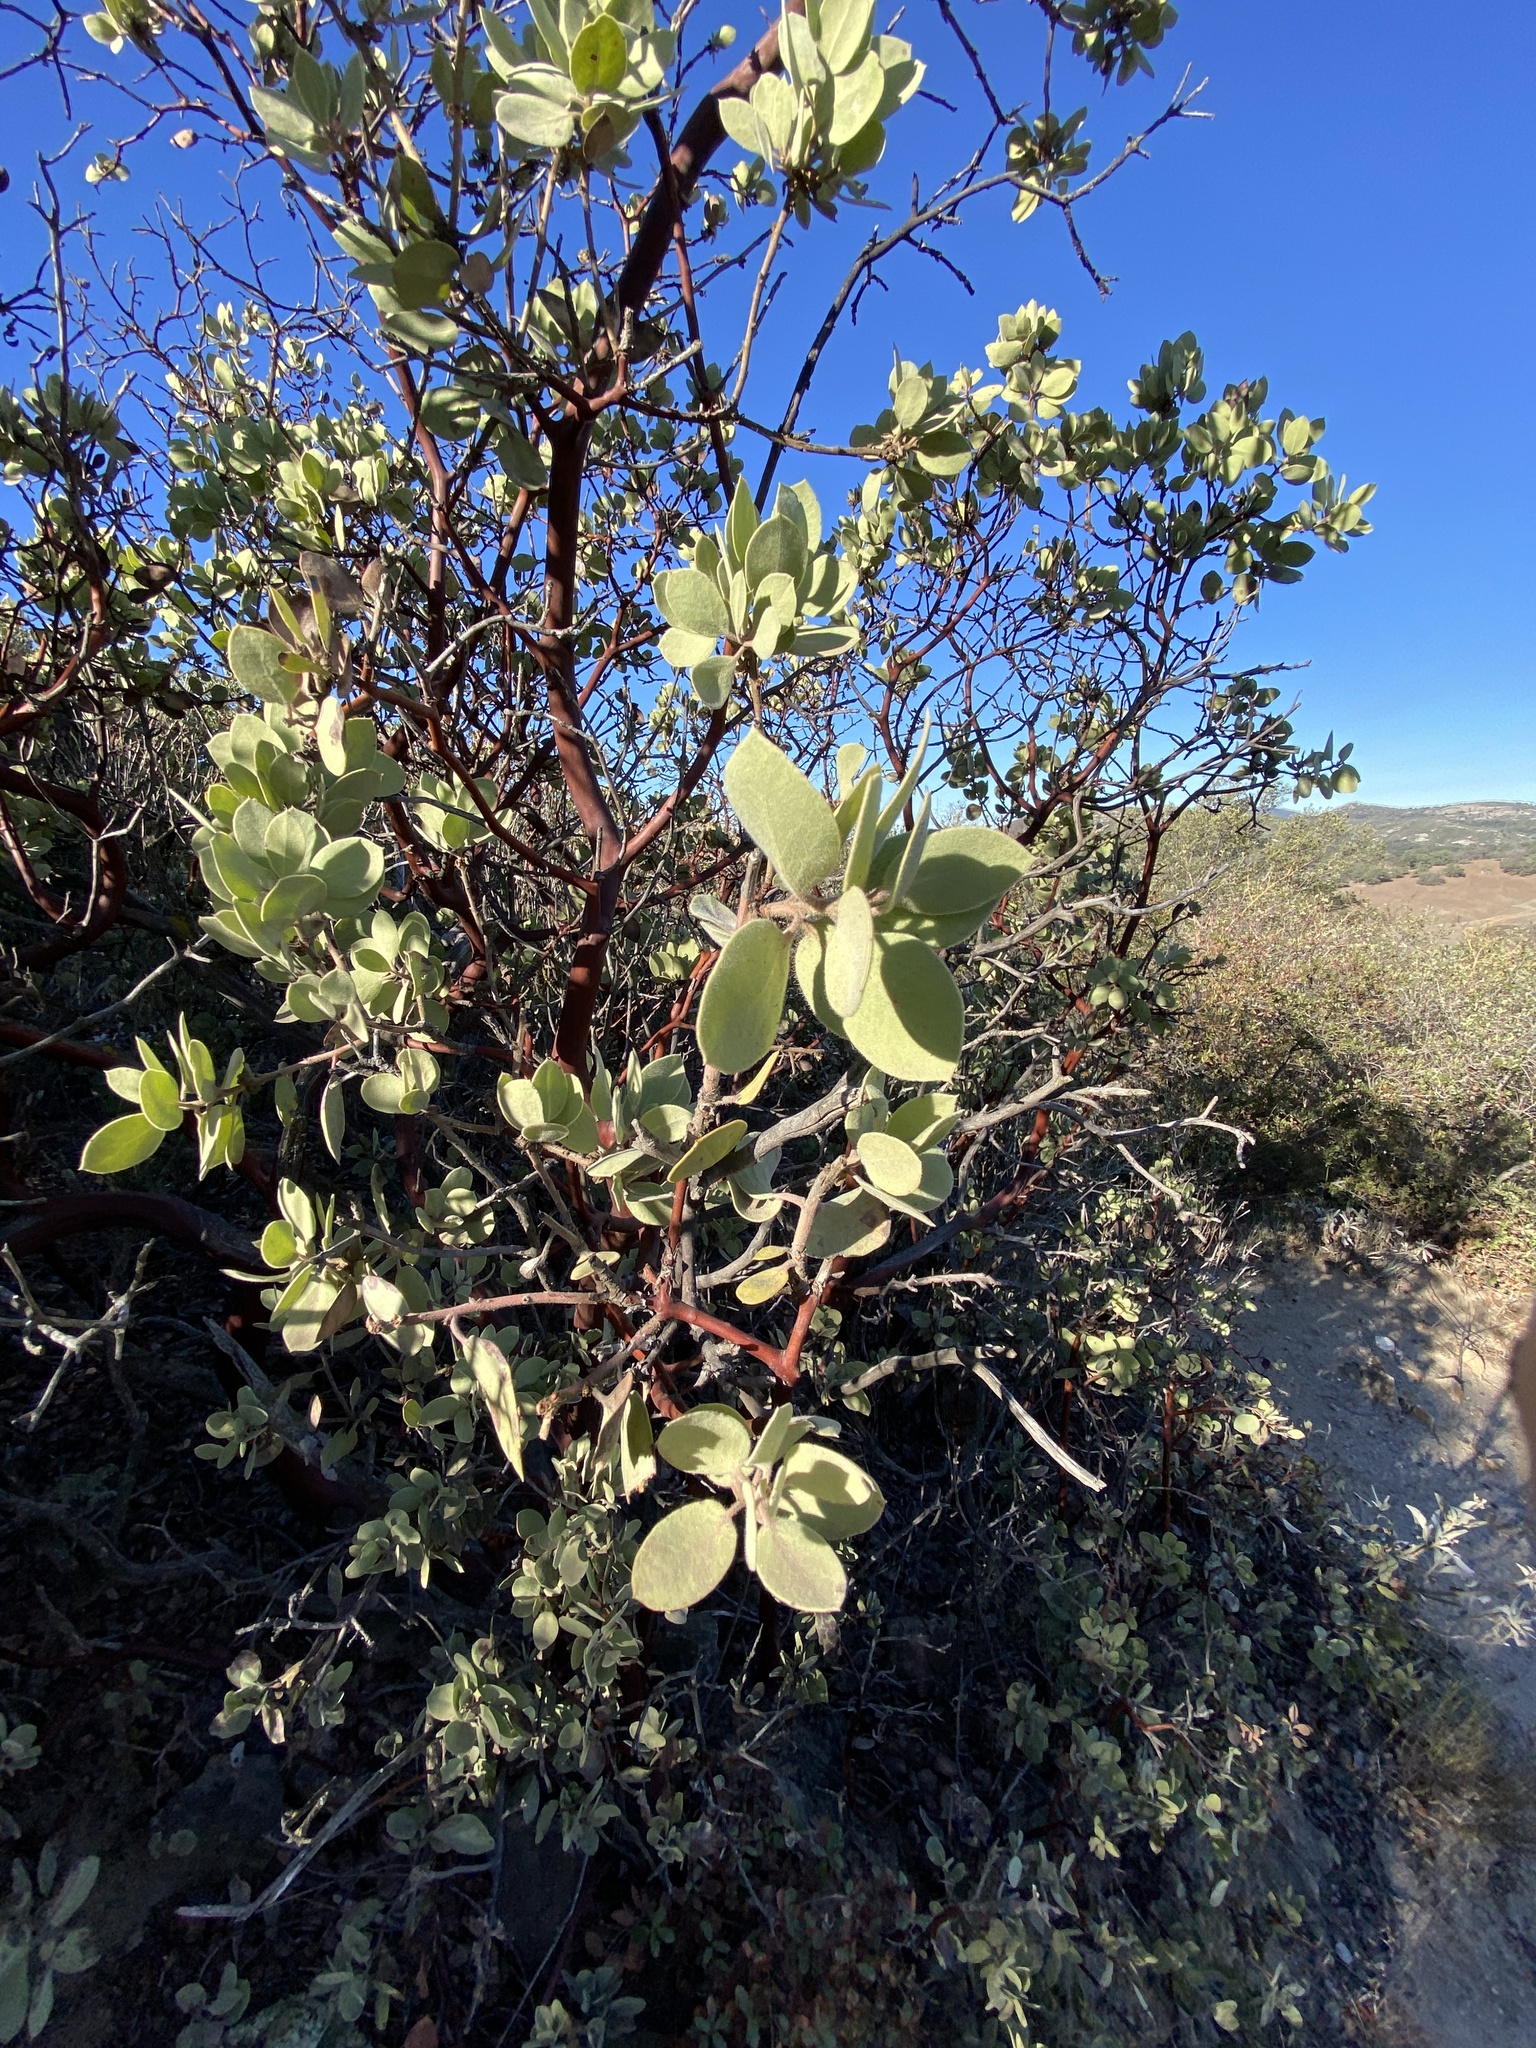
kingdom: Plantae
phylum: Tracheophyta
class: Magnoliopsida
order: Ericales
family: Ericaceae
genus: Arctostaphylos
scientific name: Arctostaphylos glandulosa
